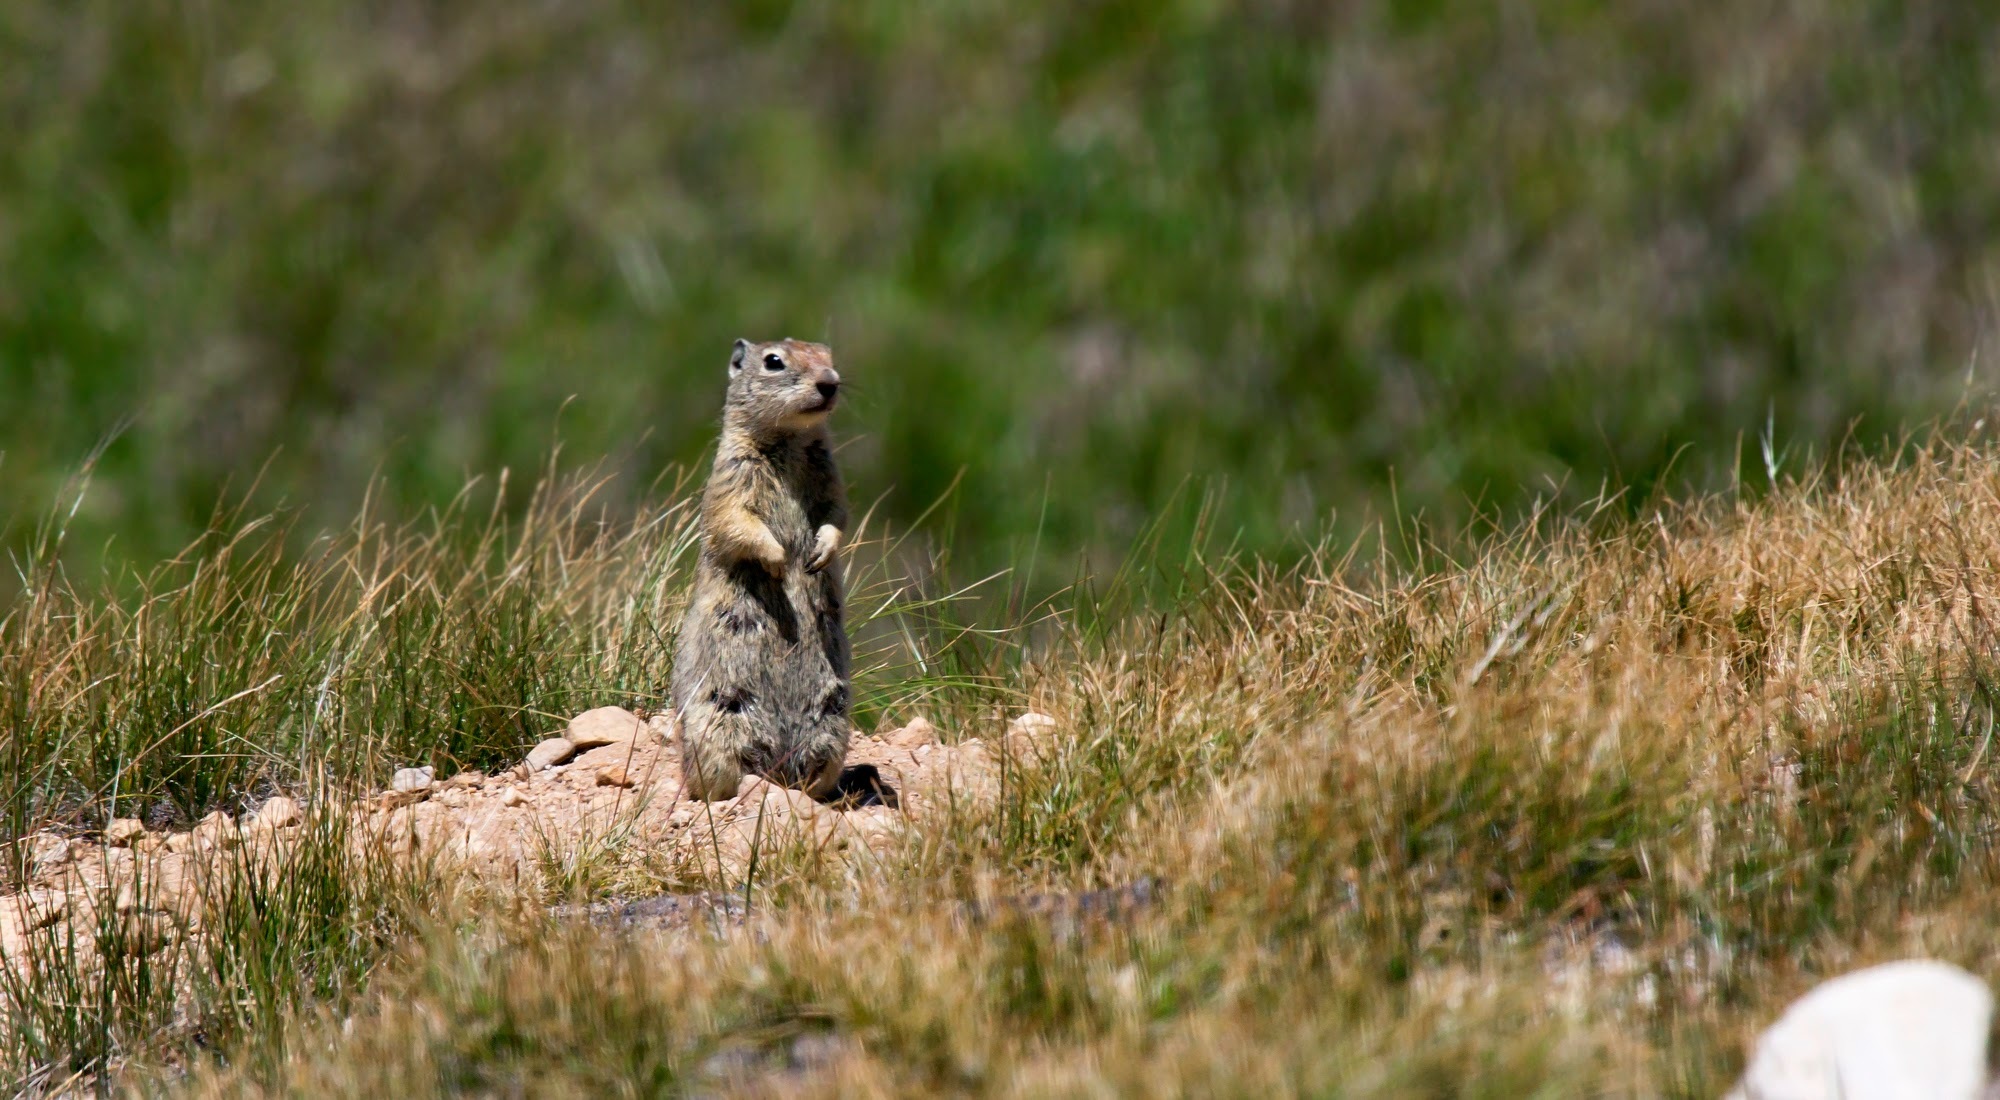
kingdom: Animalia
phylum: Chordata
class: Mammalia
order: Rodentia
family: Sciuridae
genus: Urocitellus
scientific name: Urocitellus beldingi
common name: Belding's ground squirrel
